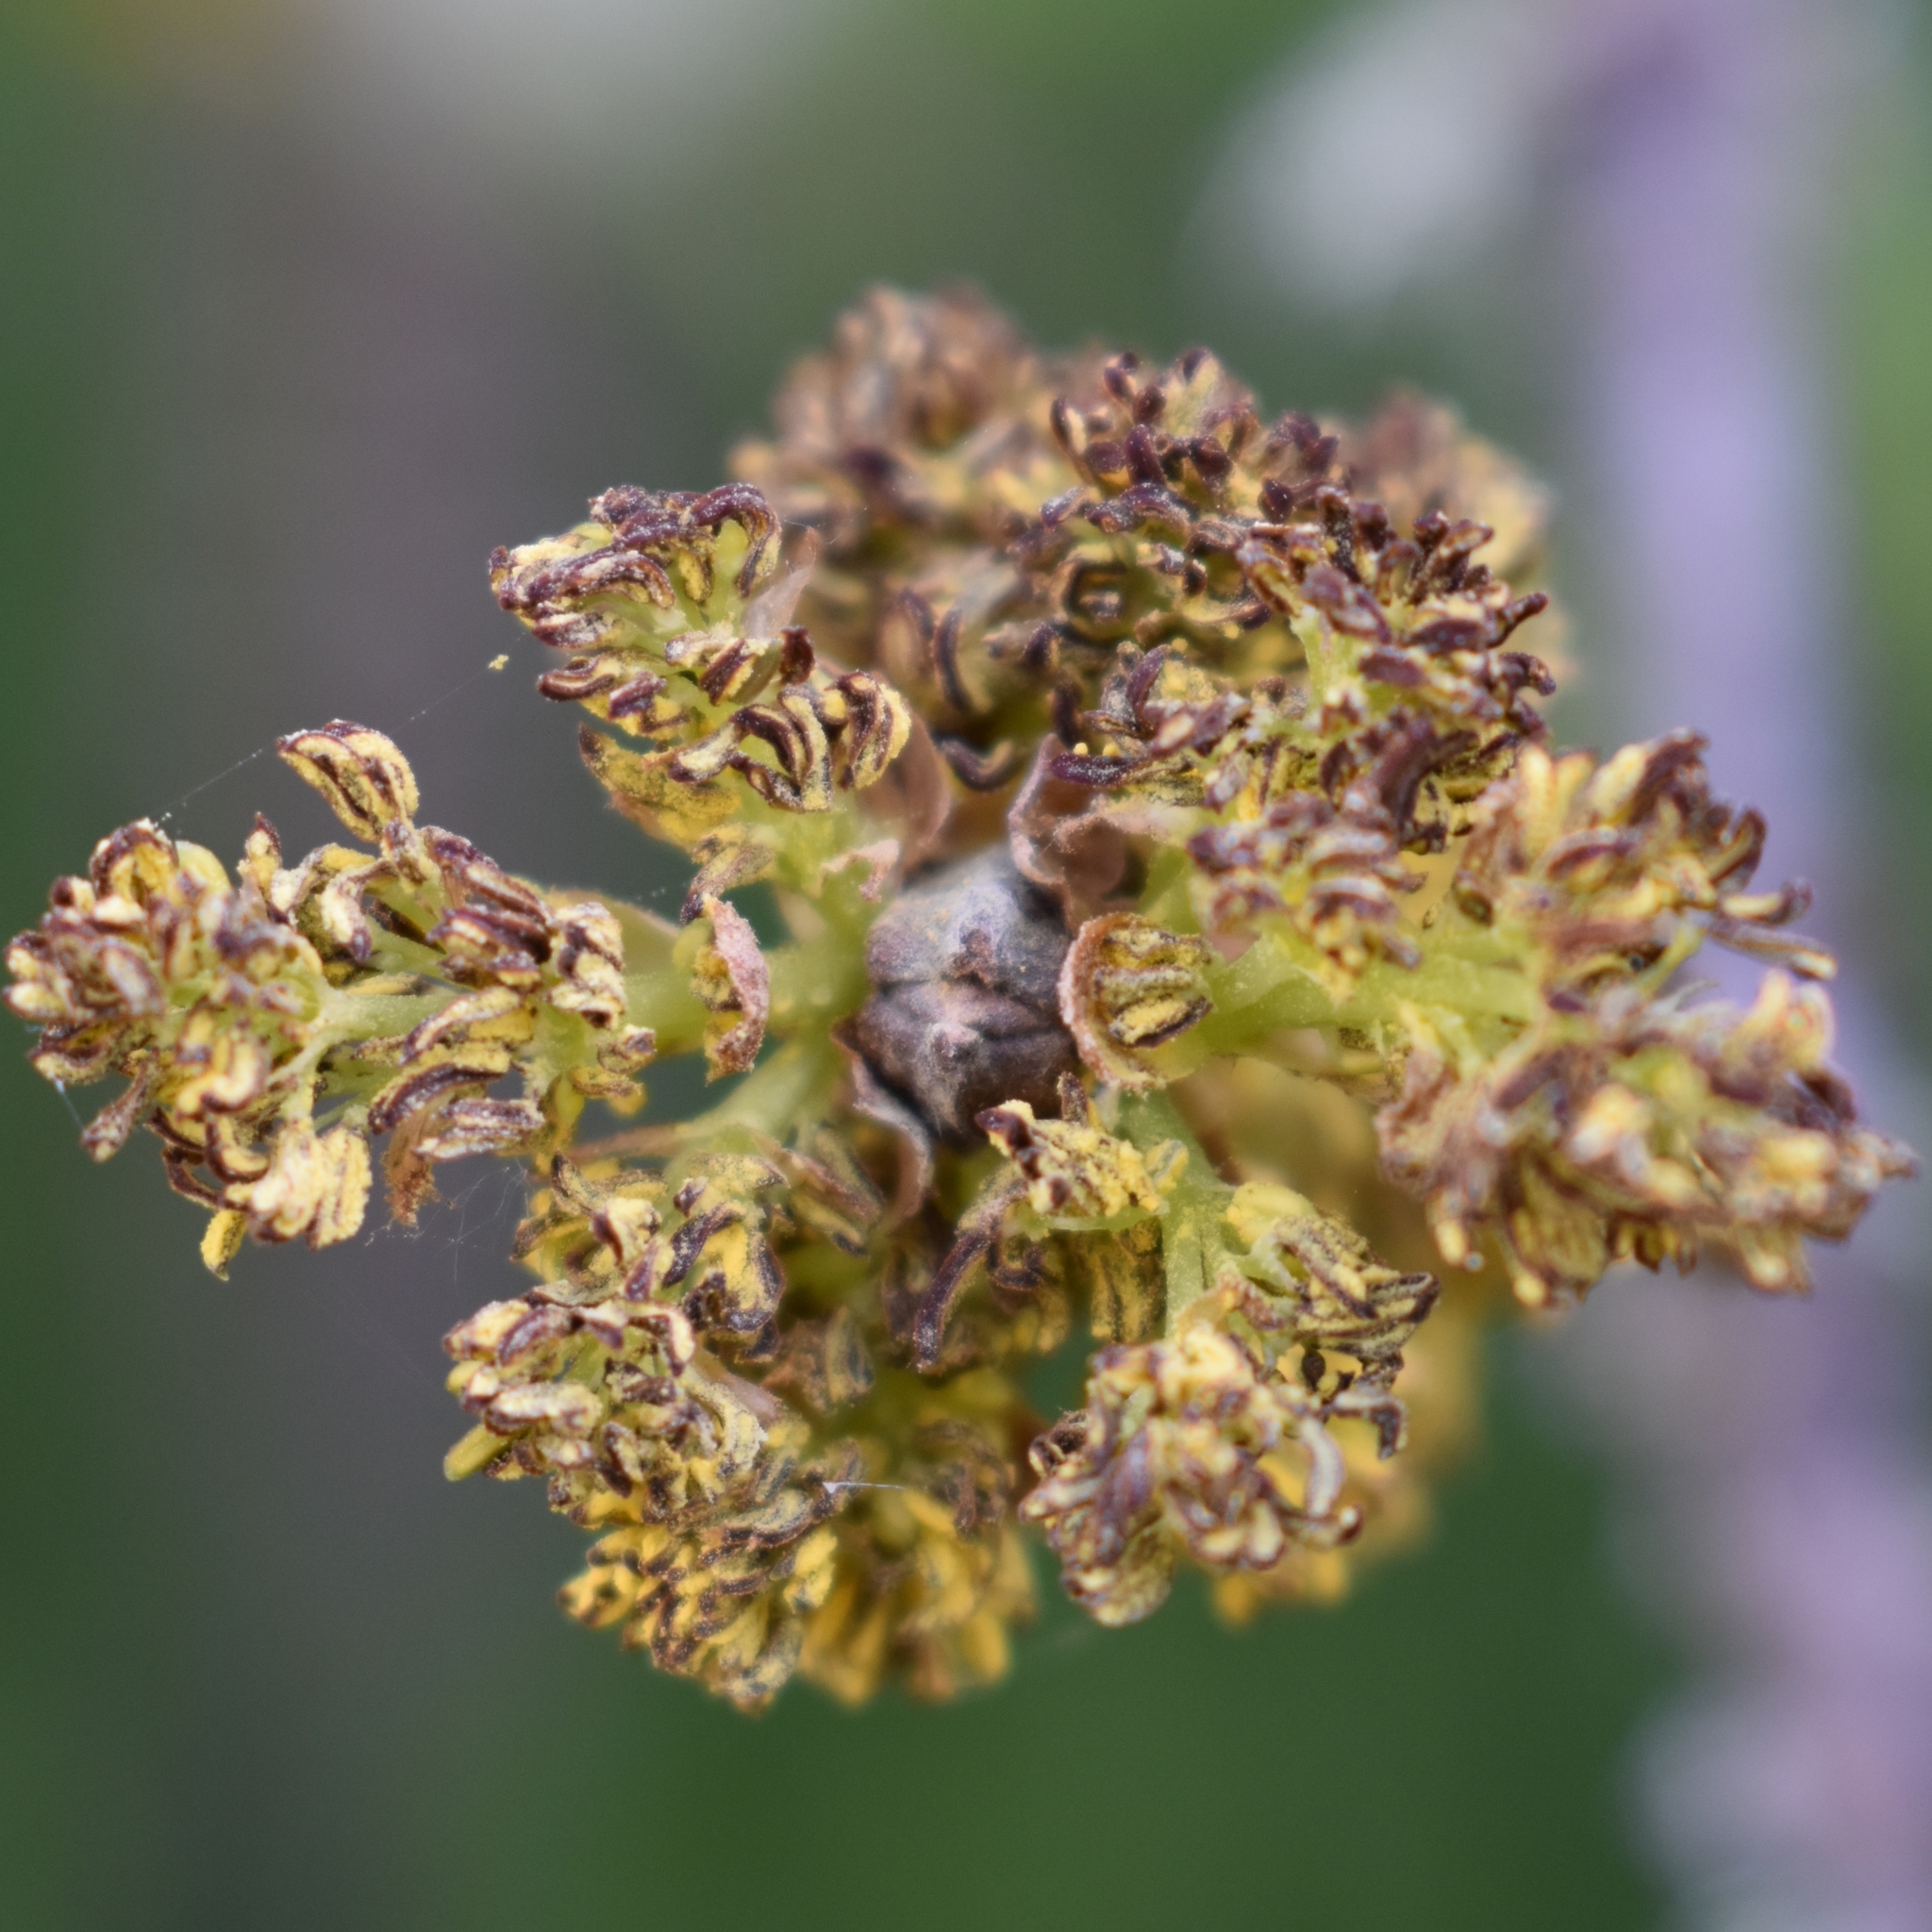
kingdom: Plantae
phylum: Tracheophyta
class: Magnoliopsida
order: Lamiales
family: Oleaceae
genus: Fraxinus
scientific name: Fraxinus latifolia
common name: Oregon ash
